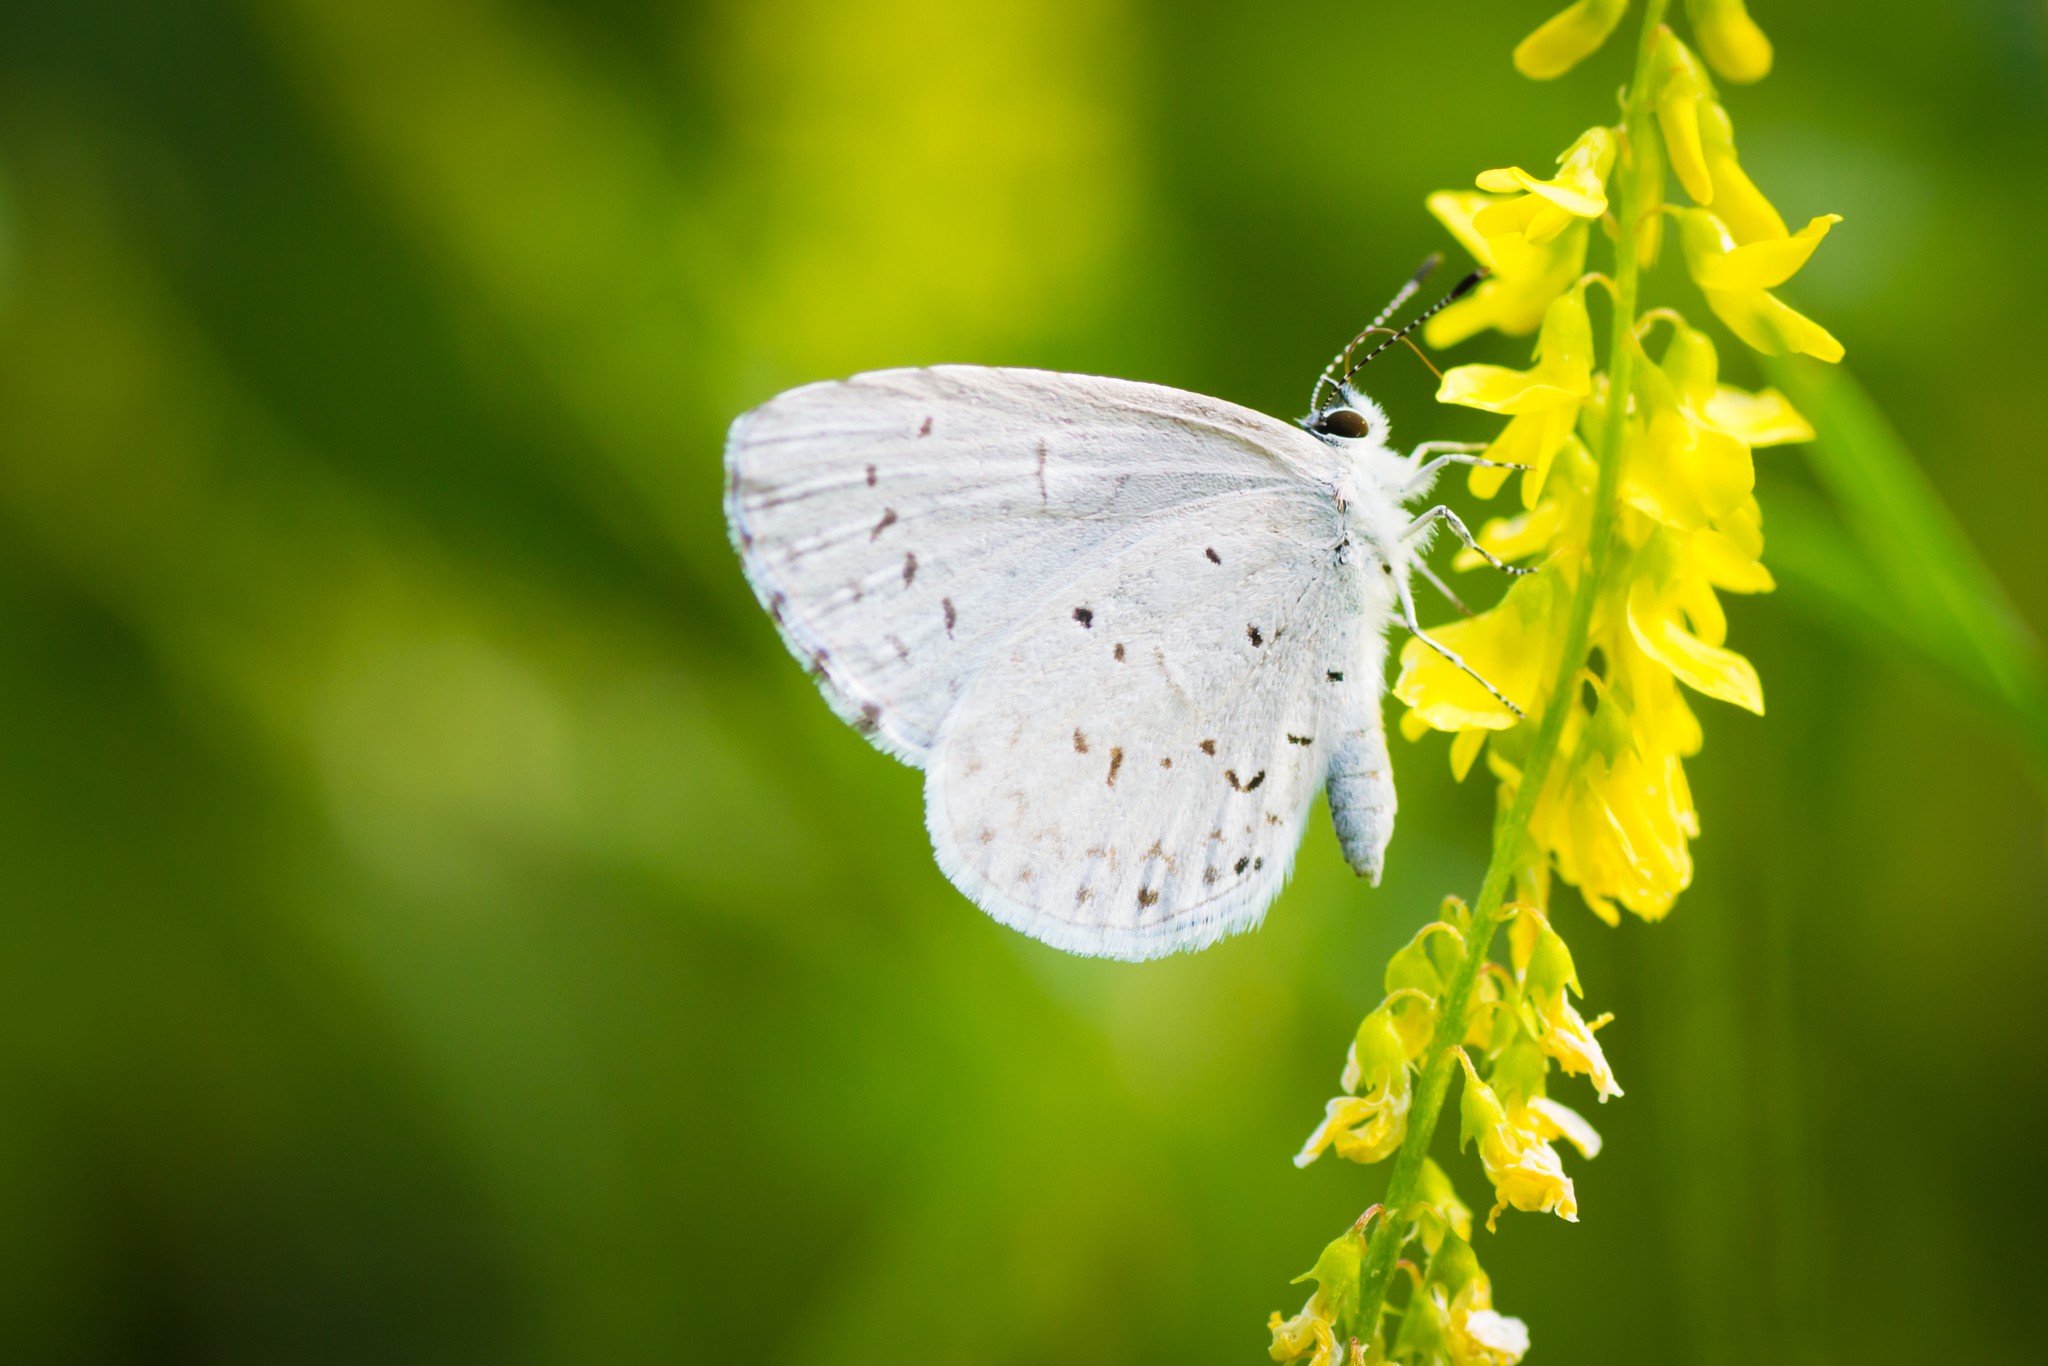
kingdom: Animalia
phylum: Arthropoda
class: Insecta
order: Lepidoptera
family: Lycaenidae
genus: Cyaniris
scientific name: Cyaniris neglecta
